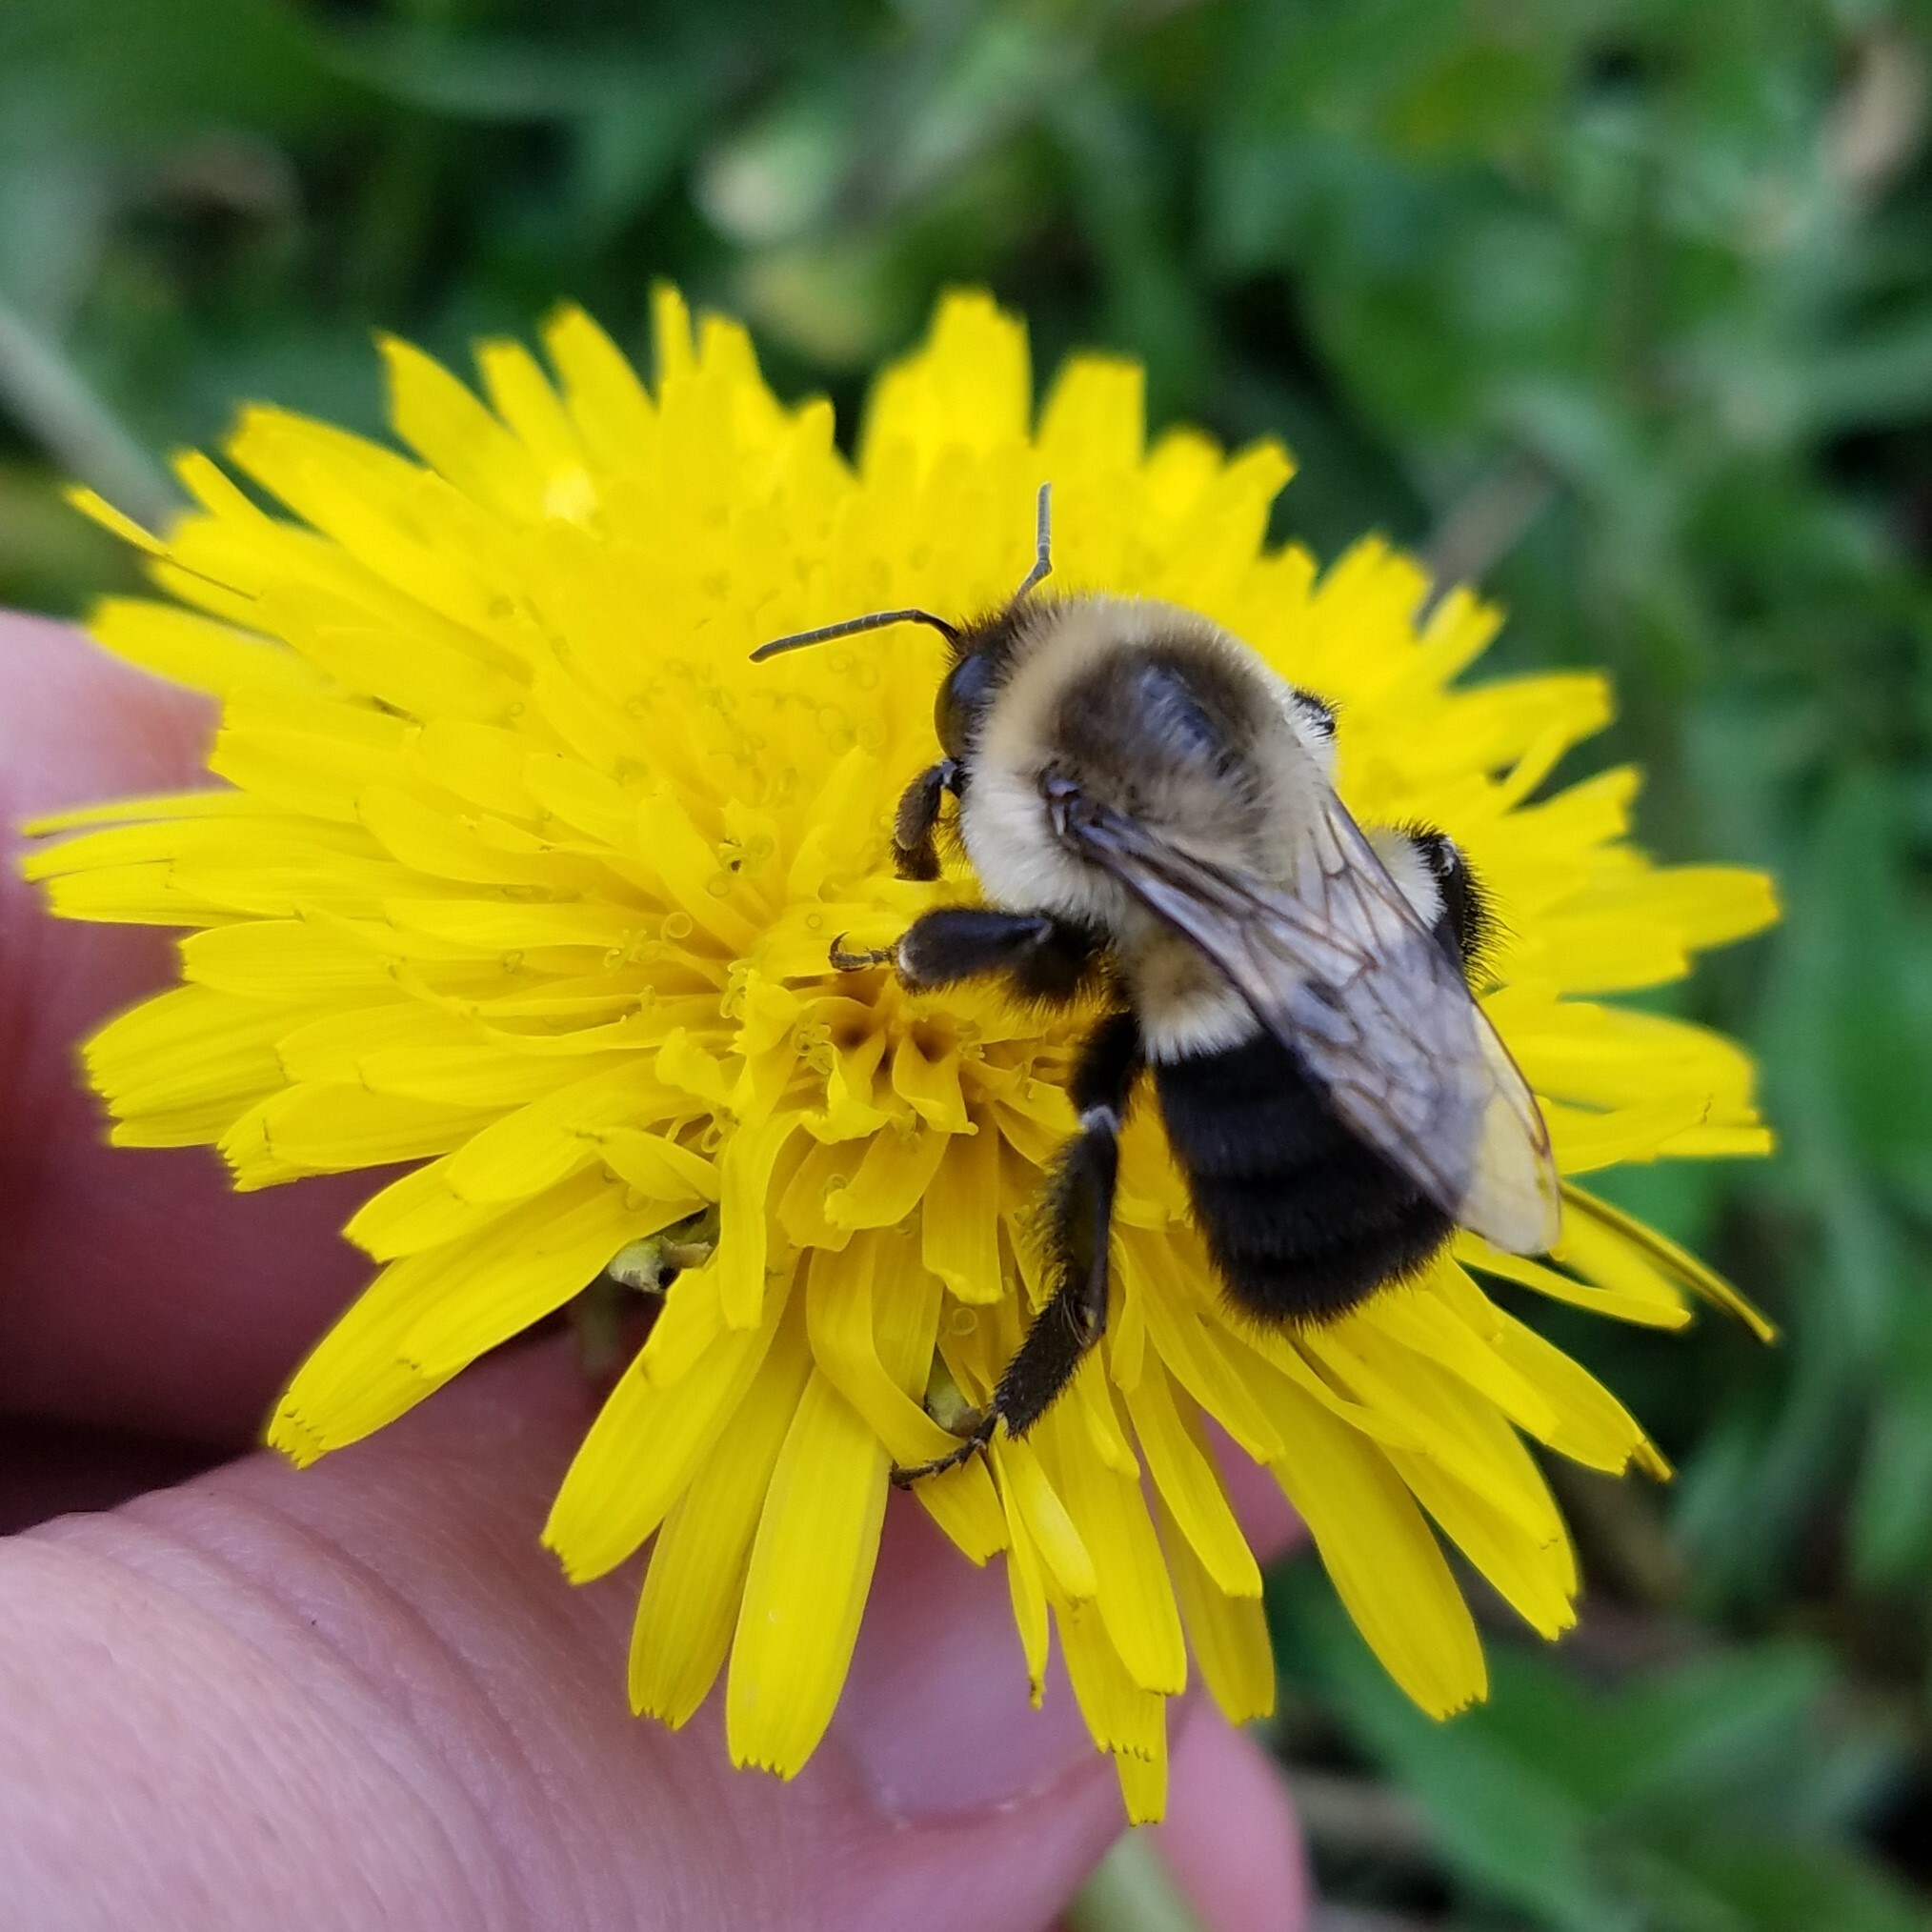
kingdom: Animalia
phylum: Arthropoda
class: Insecta
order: Hymenoptera
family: Apidae
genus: Bombus
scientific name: Bombus impatiens
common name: Common eastern bumble bee
